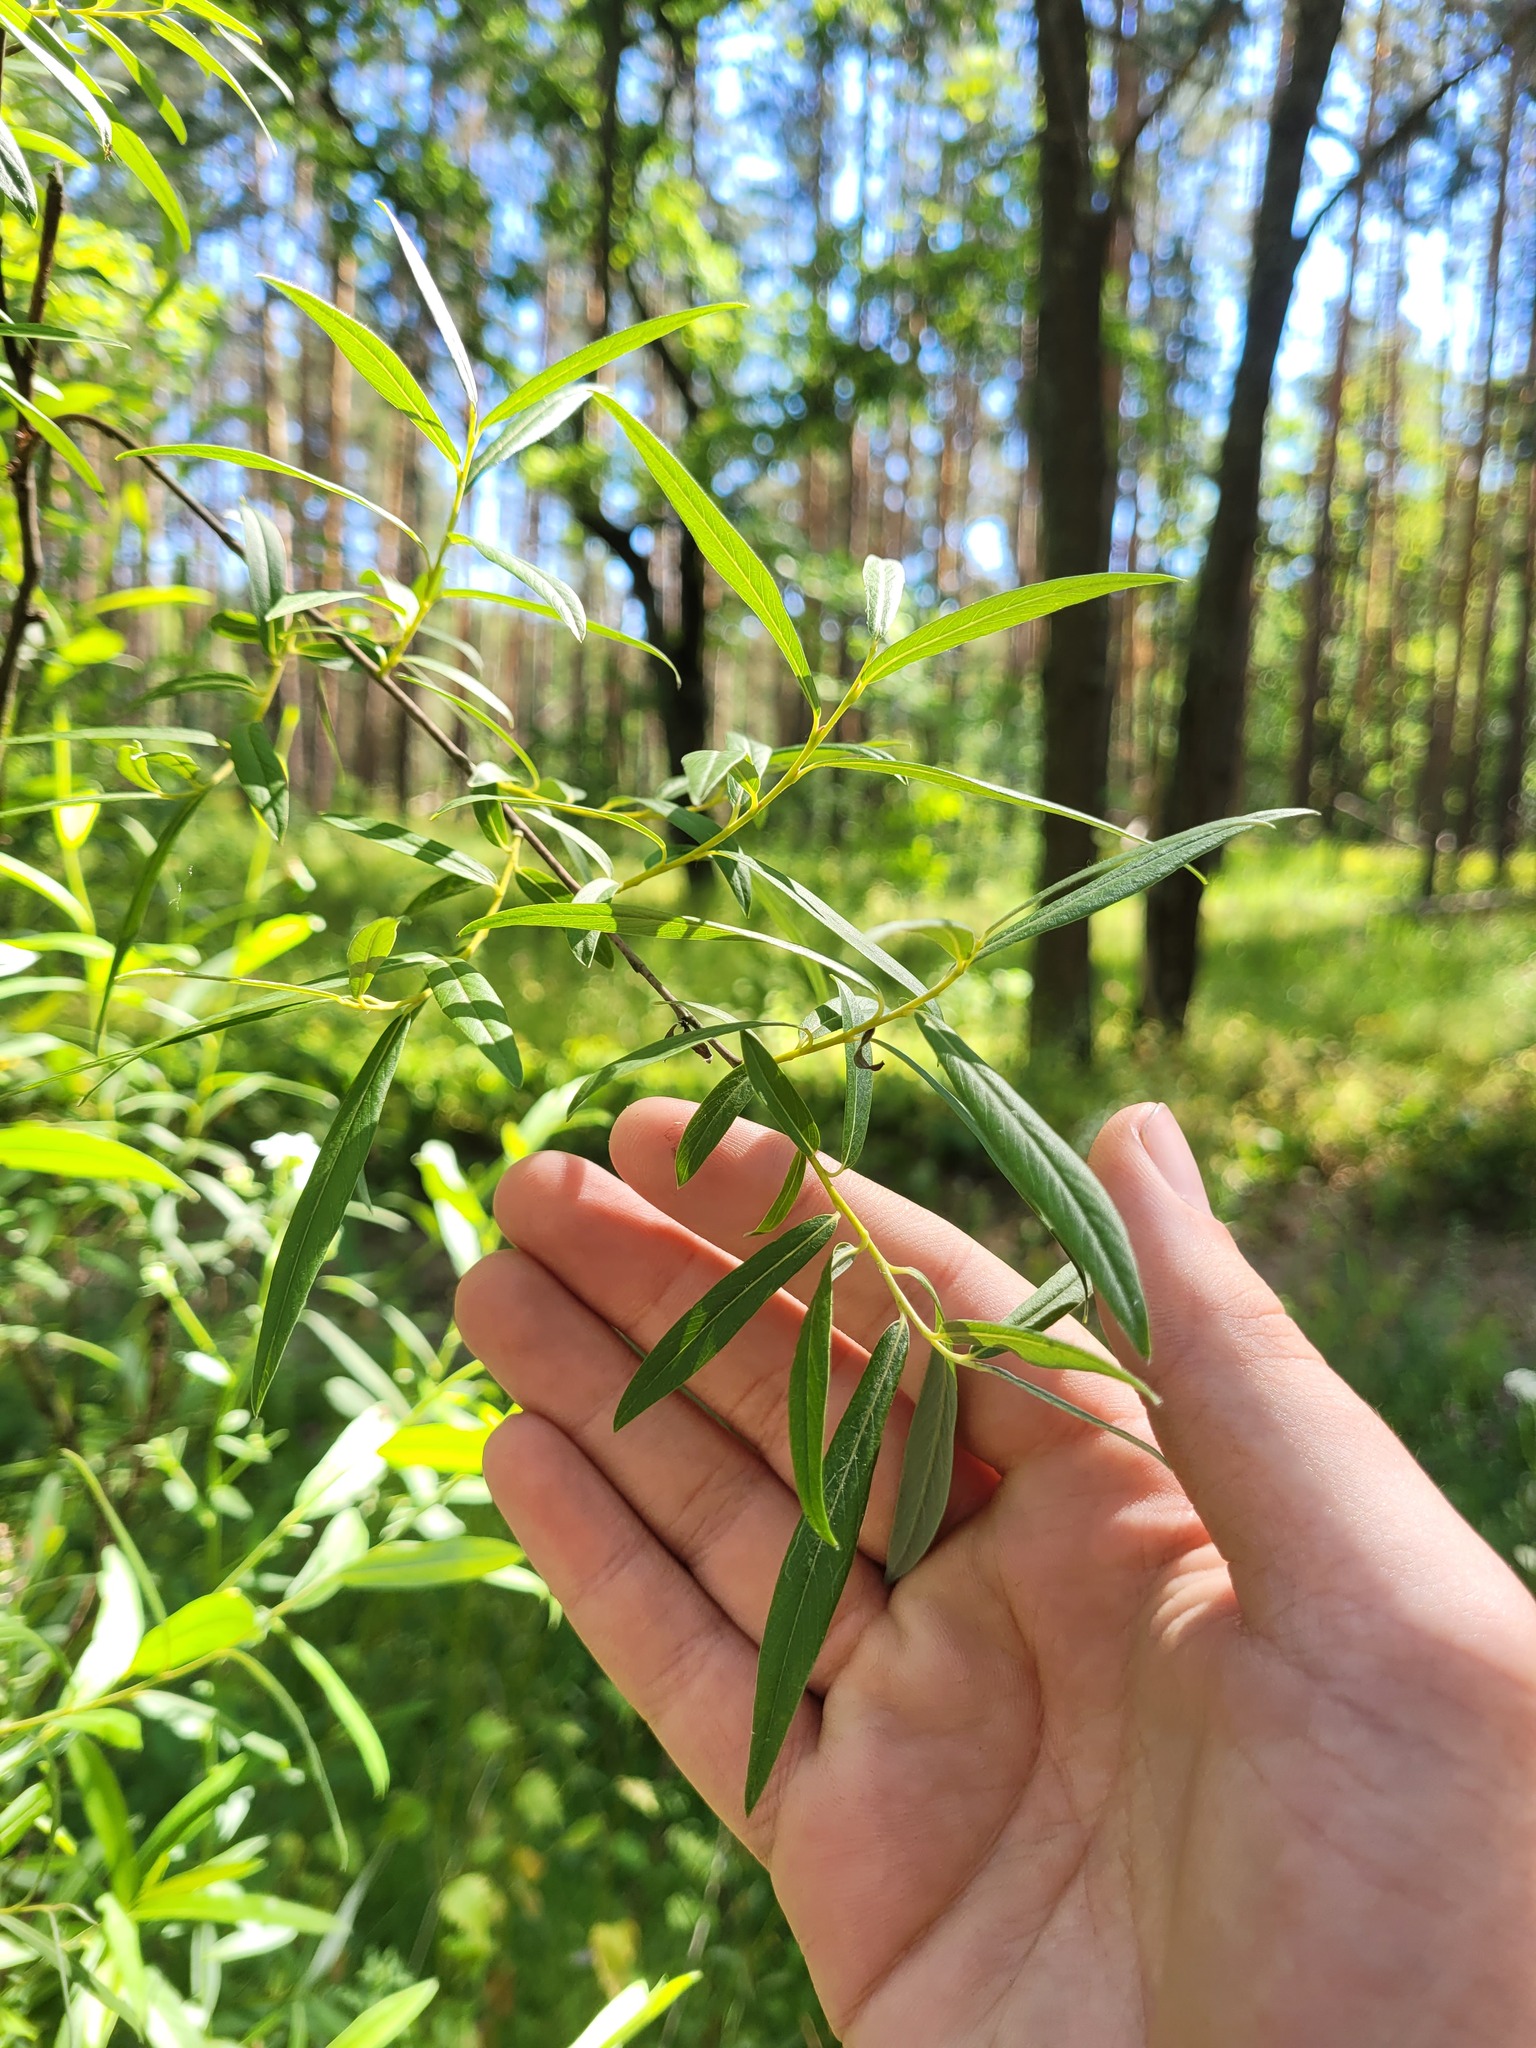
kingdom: Plantae
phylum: Tracheophyta
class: Magnoliopsida
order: Malpighiales
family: Salicaceae
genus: Salix
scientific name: Salix rosmarinifolia
